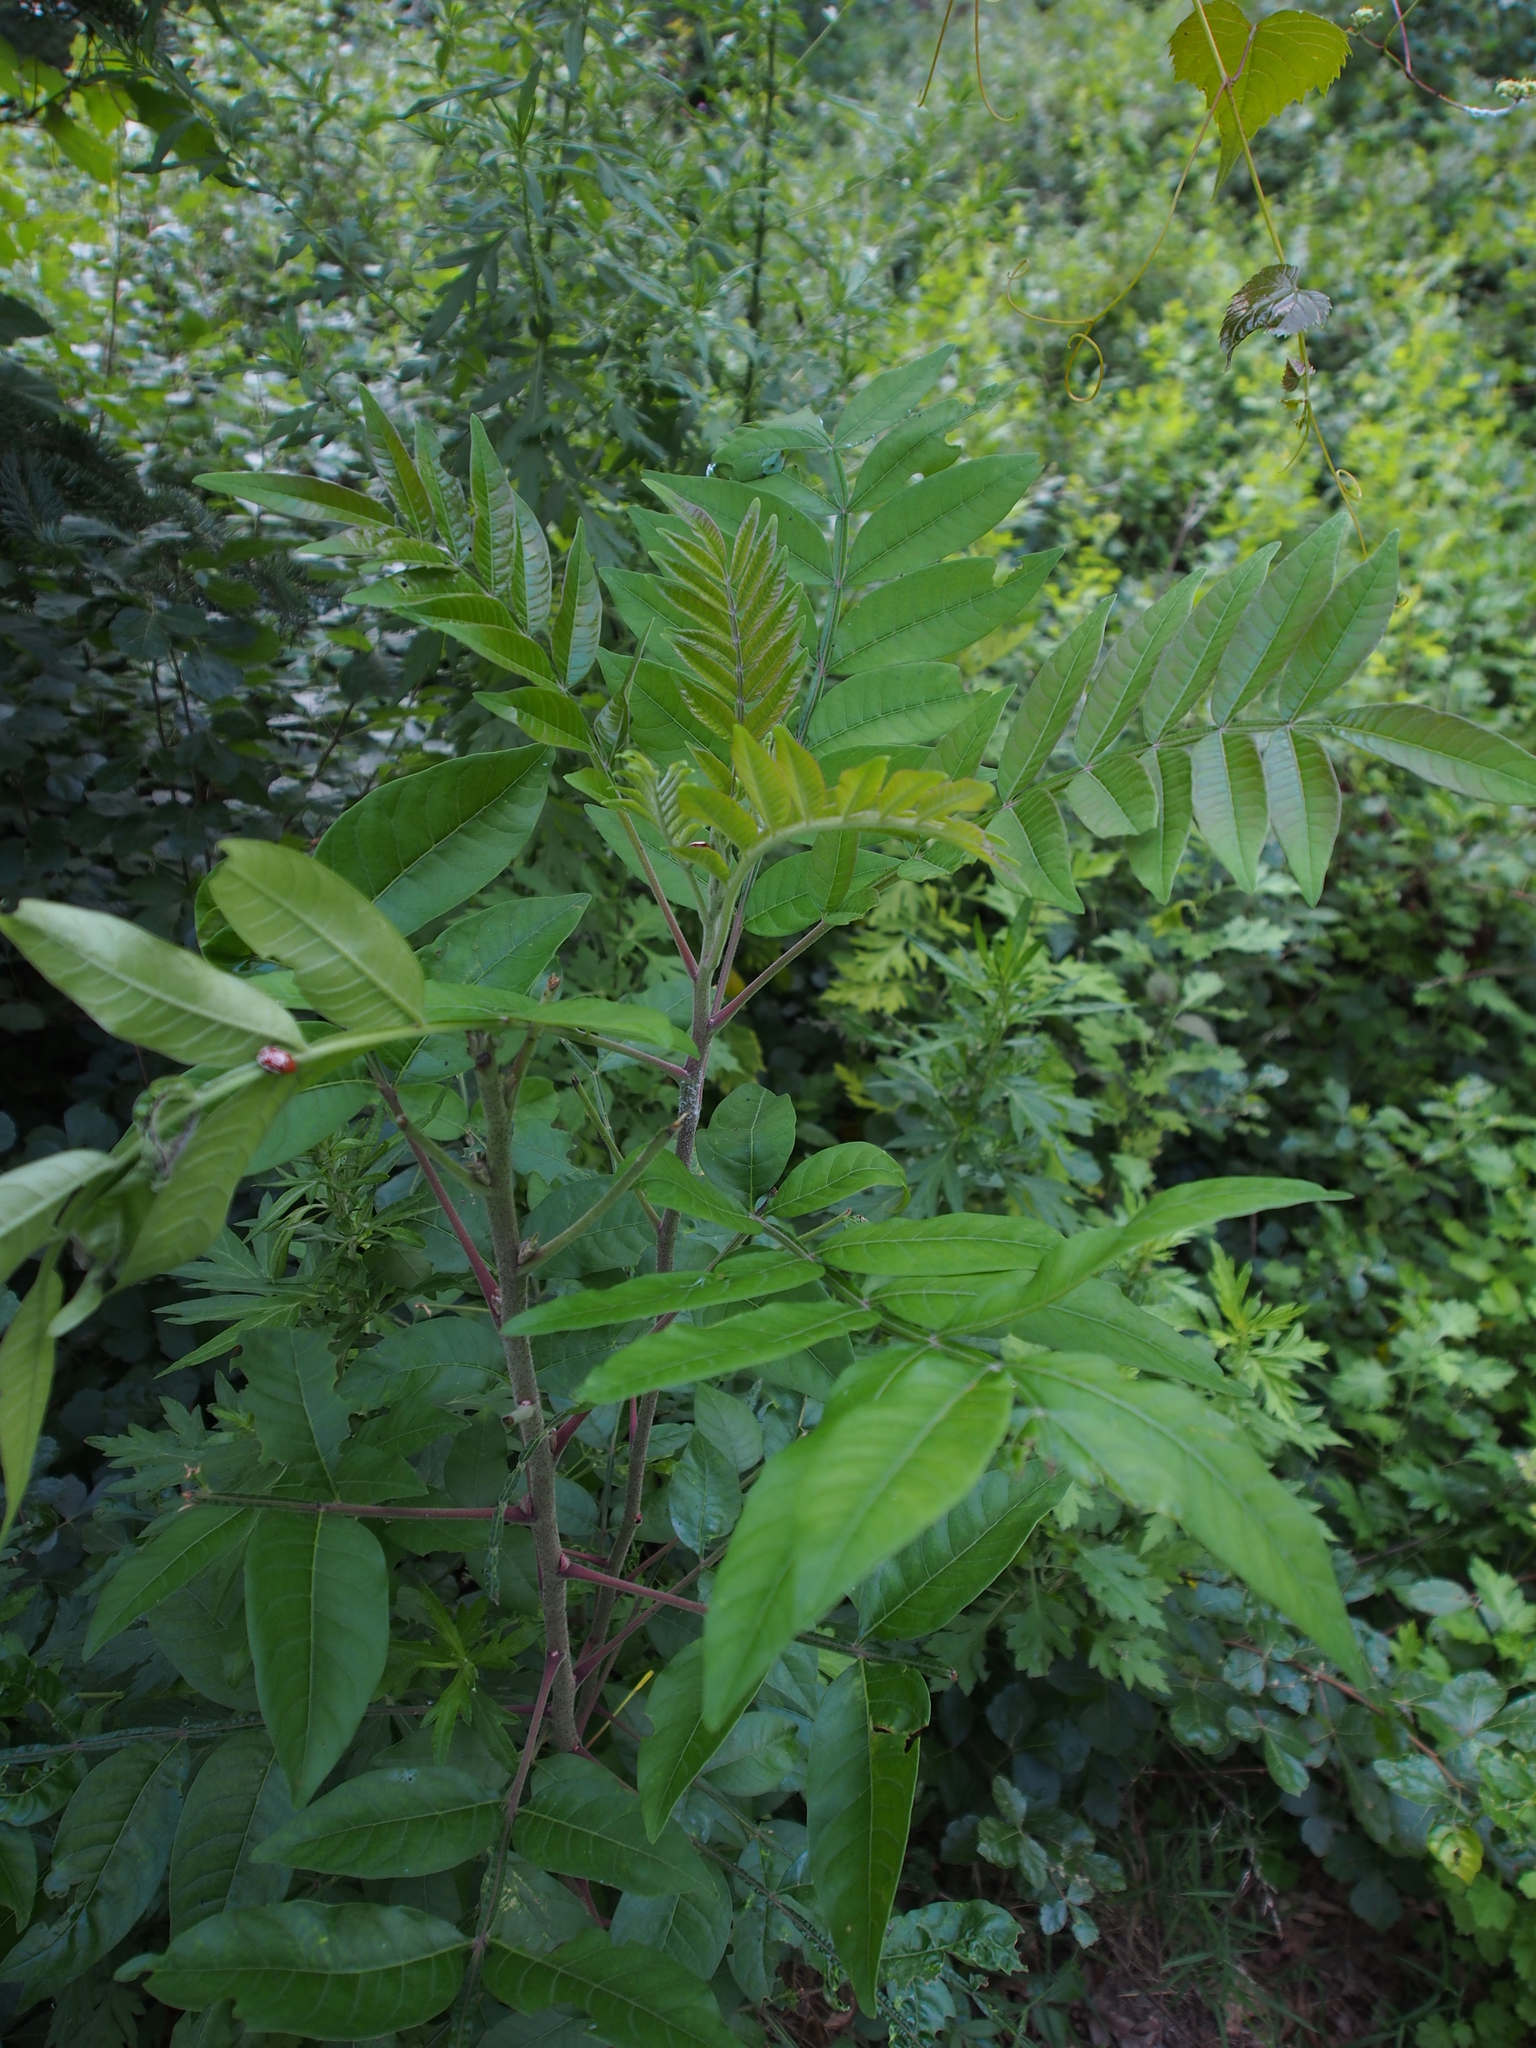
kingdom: Animalia
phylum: Arthropoda
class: Insecta
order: Coleoptera
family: Chrysomelidae
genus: Blepharida
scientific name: Blepharida rhois
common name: Sumac flea beetle
